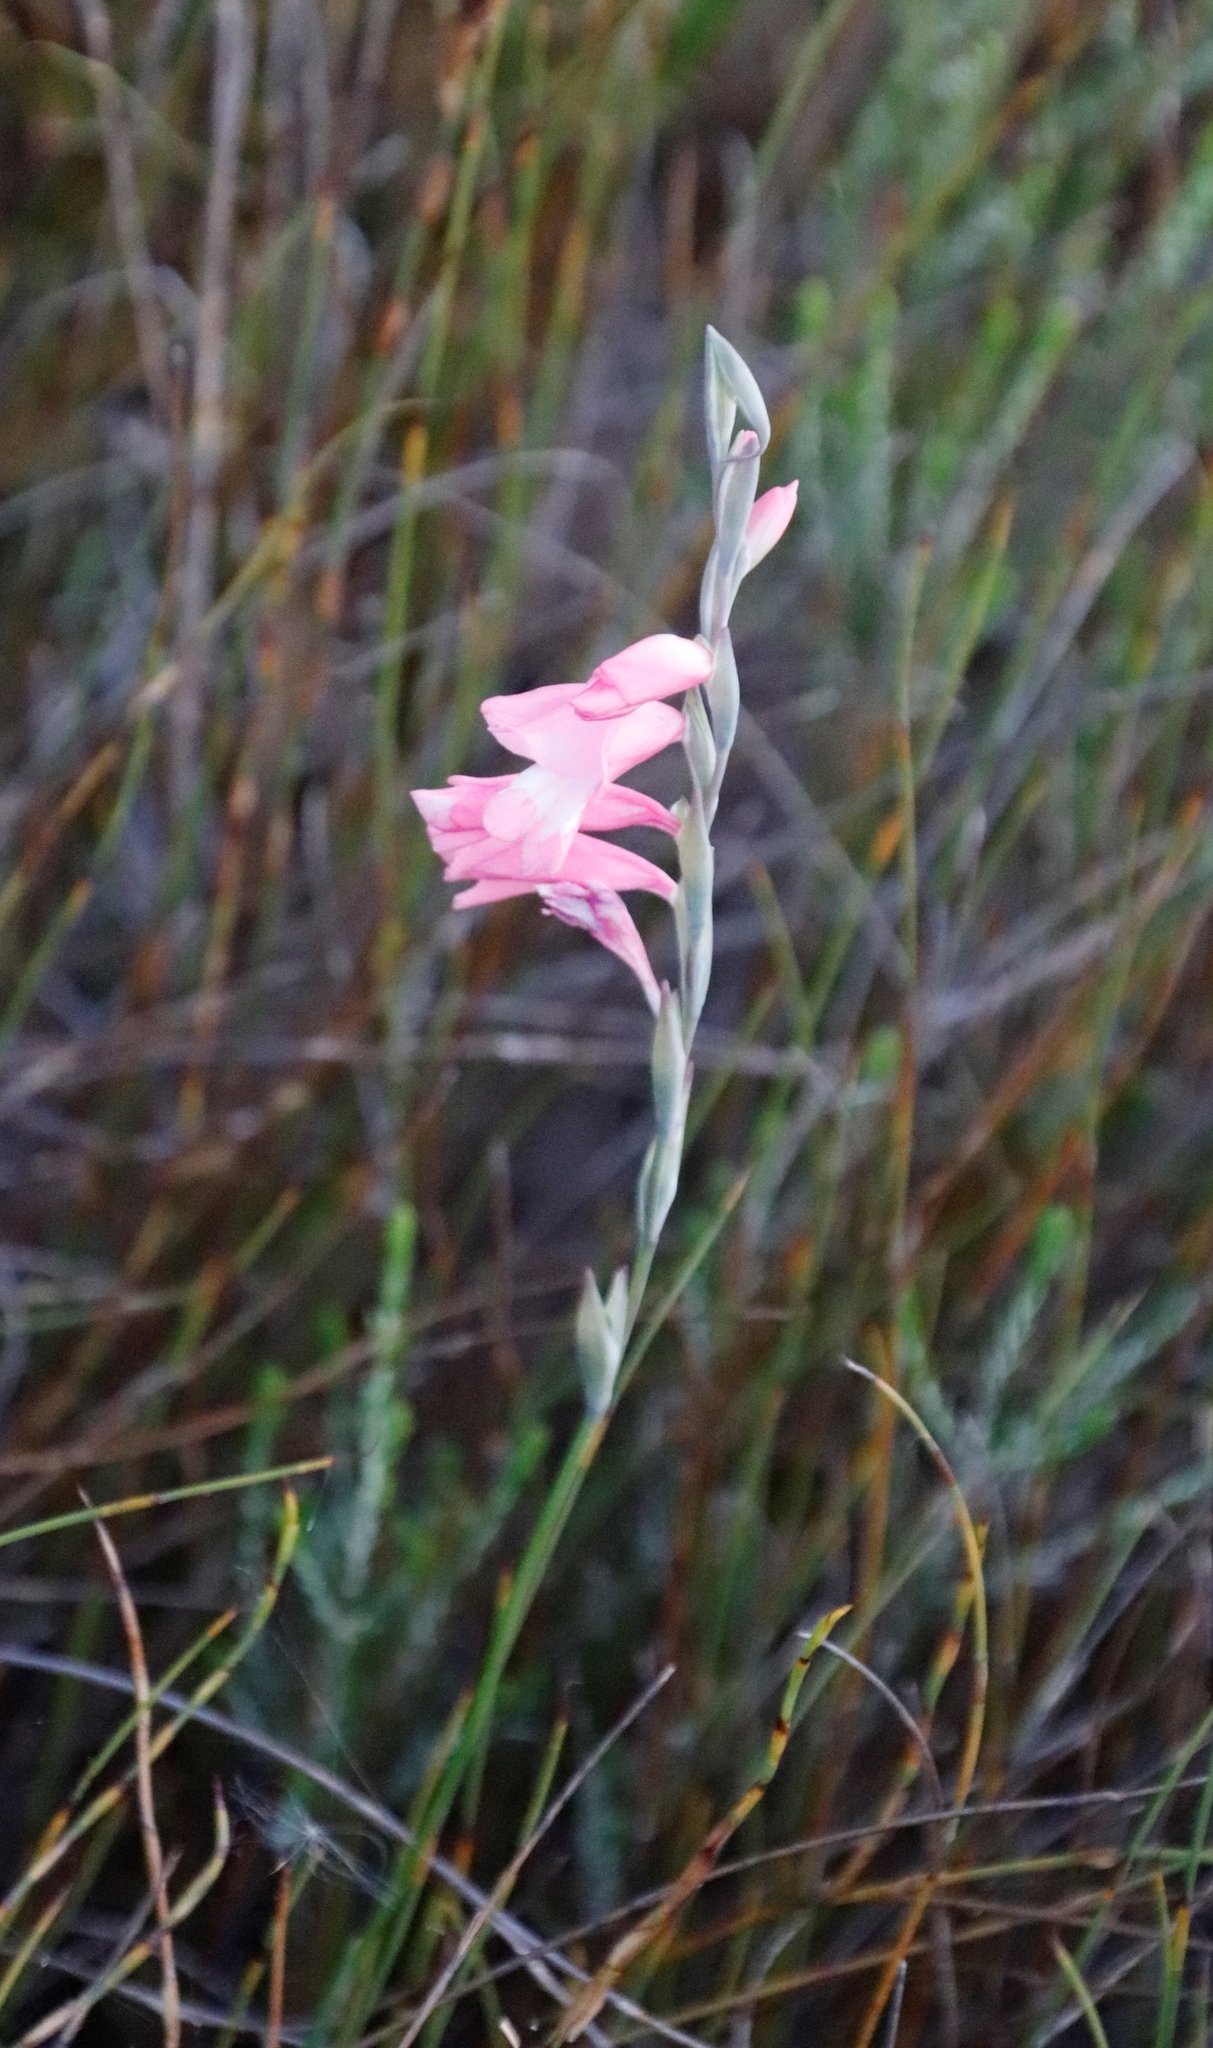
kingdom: Plantae
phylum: Tracheophyta
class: Liliopsida
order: Asparagales
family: Iridaceae
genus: Gladiolus
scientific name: Gladiolus brevifolius
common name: March pypie
